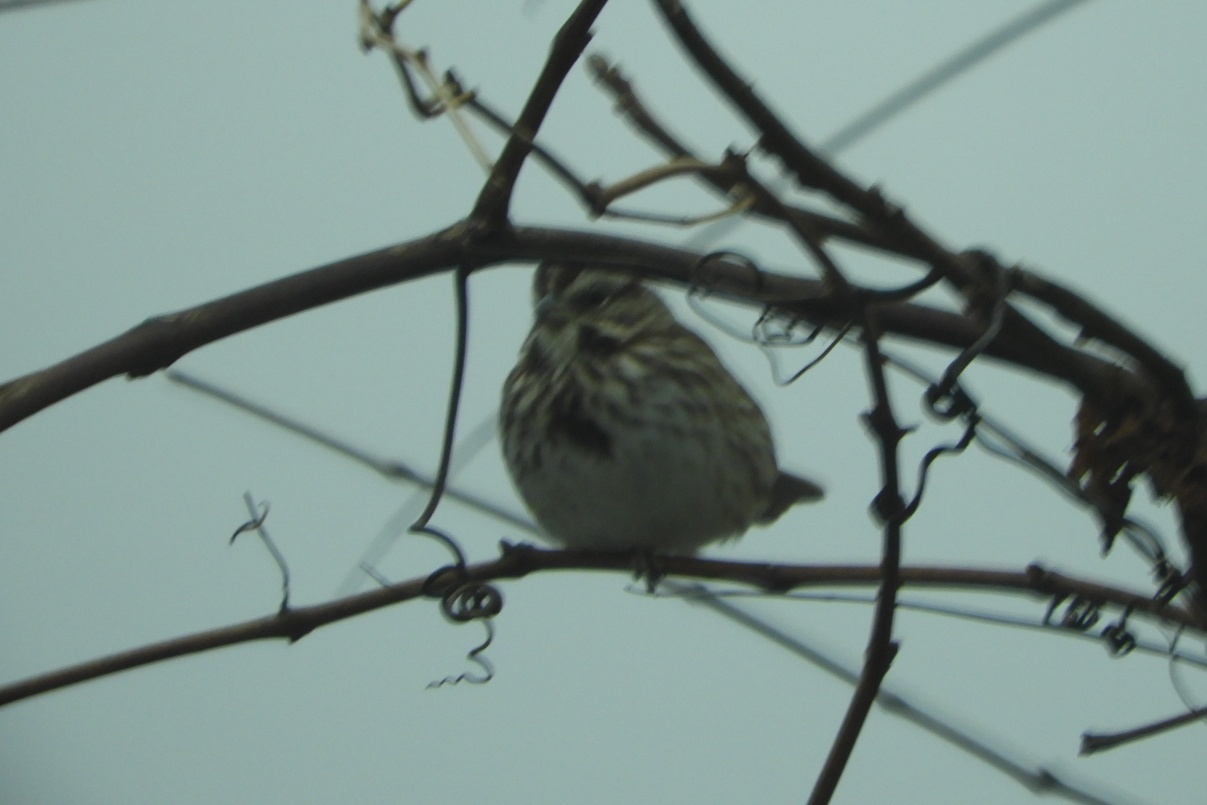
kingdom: Animalia
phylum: Chordata
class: Aves
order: Passeriformes
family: Passerellidae
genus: Melospiza
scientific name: Melospiza melodia
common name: Song sparrow
